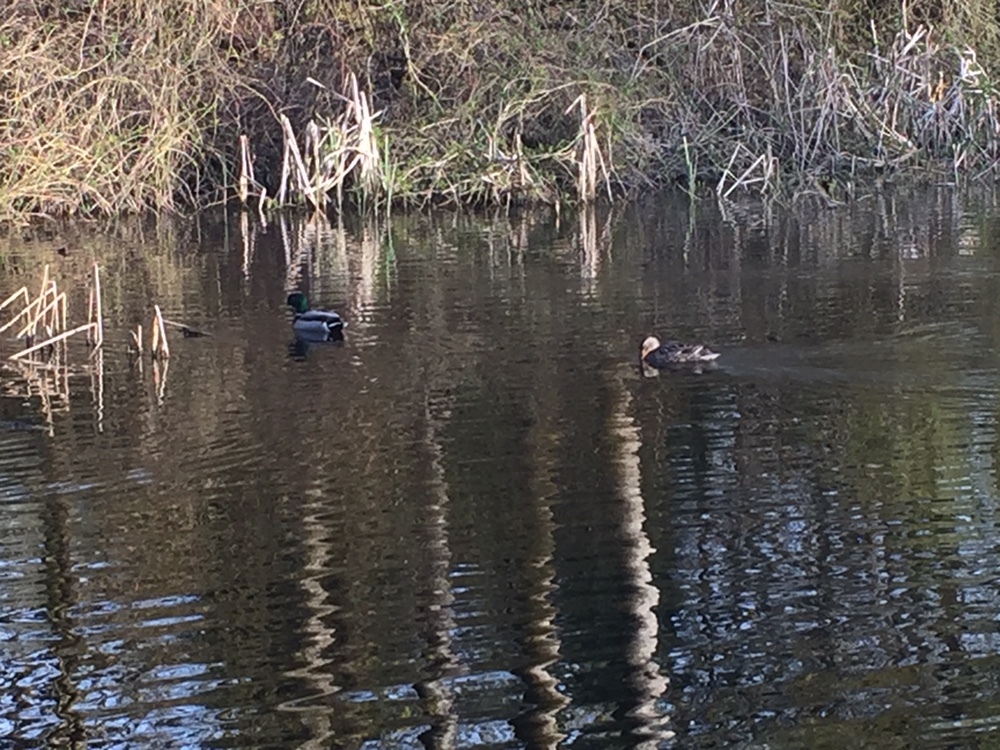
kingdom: Animalia
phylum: Chordata
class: Aves
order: Anseriformes
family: Anatidae
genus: Anas
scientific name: Anas platyrhynchos
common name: Mallard
